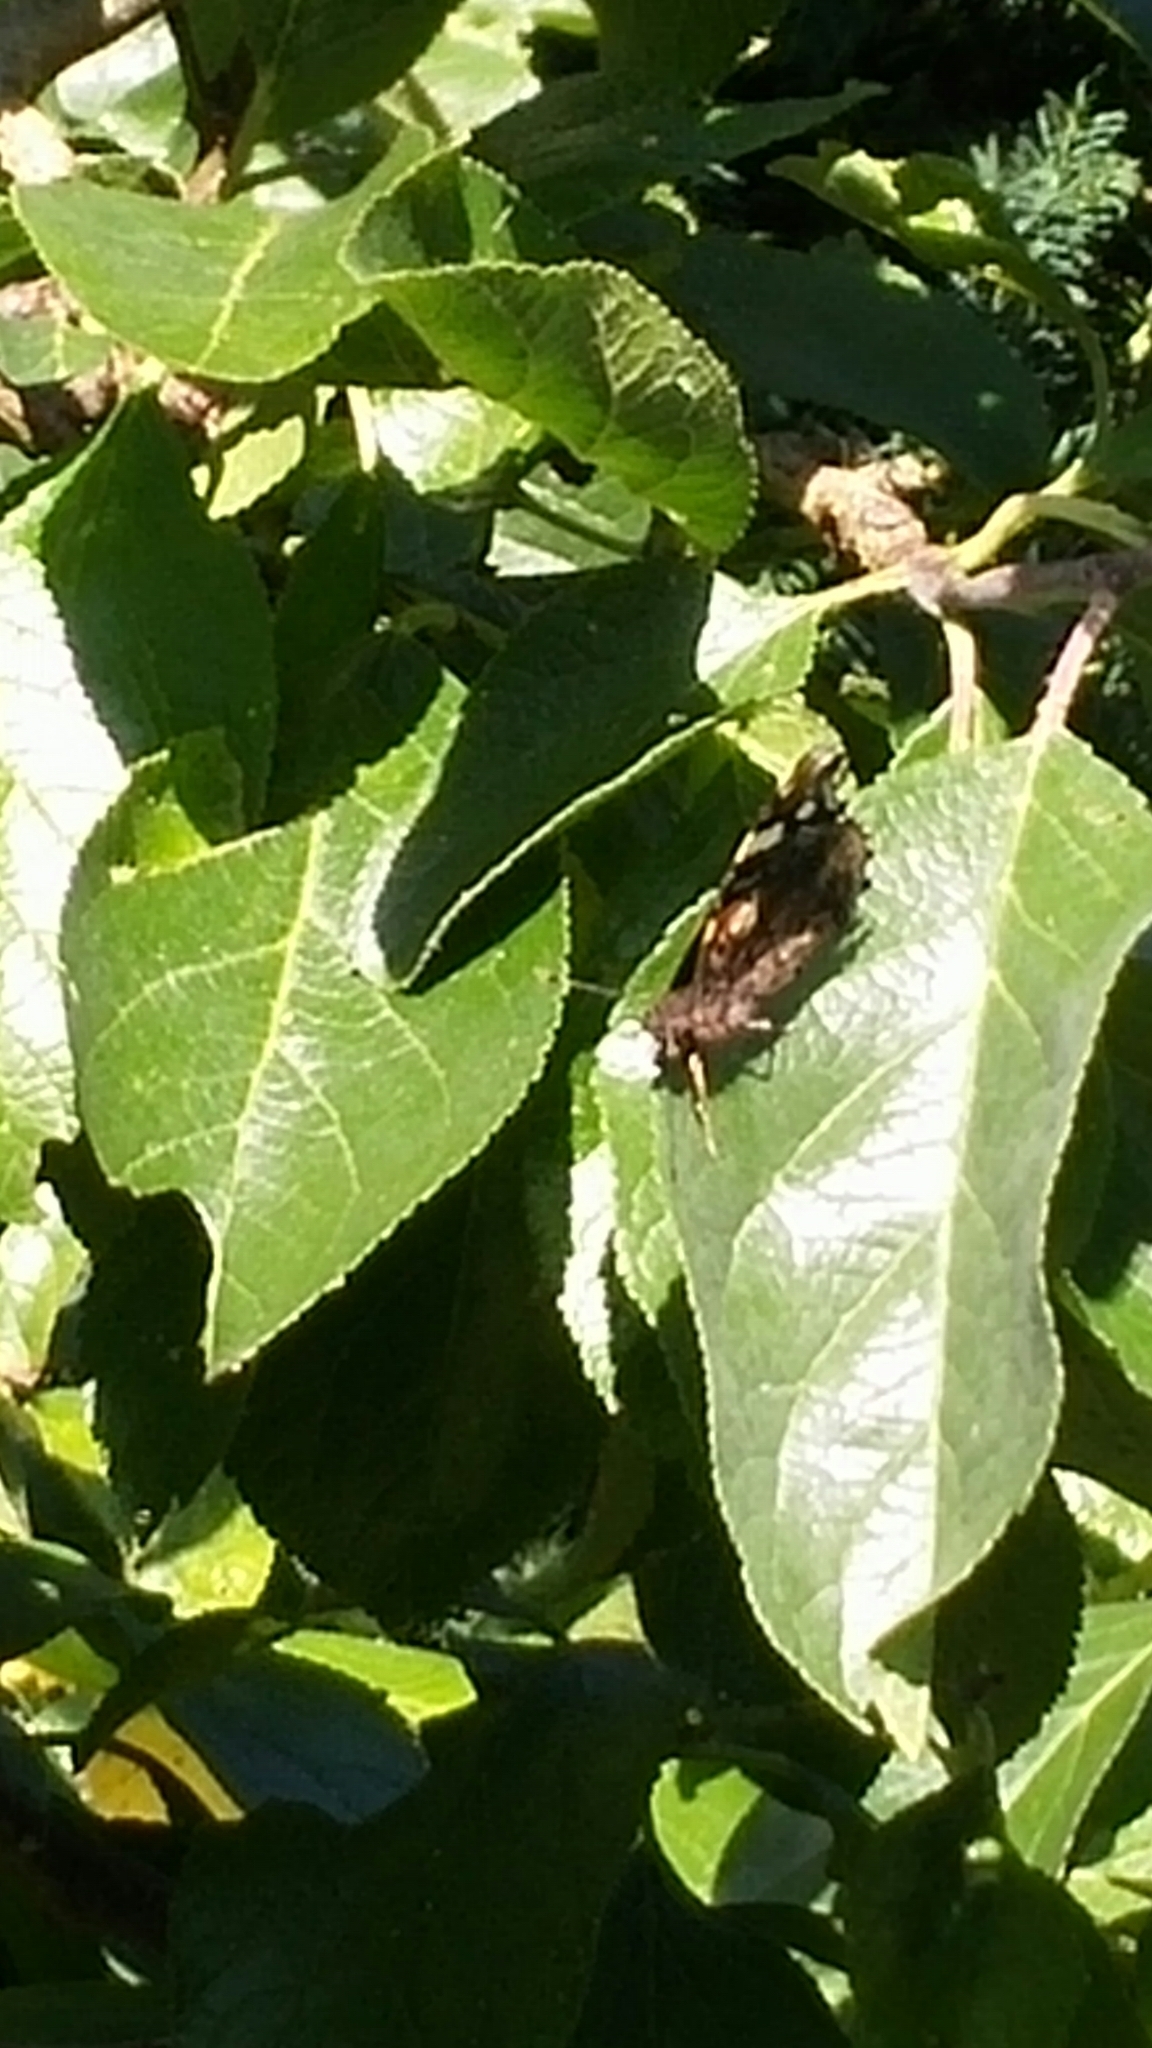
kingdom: Animalia
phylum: Arthropoda
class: Insecta
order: Lepidoptera
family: Nymphalidae
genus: Vanessa
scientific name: Vanessa atalanta
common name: Red admiral
